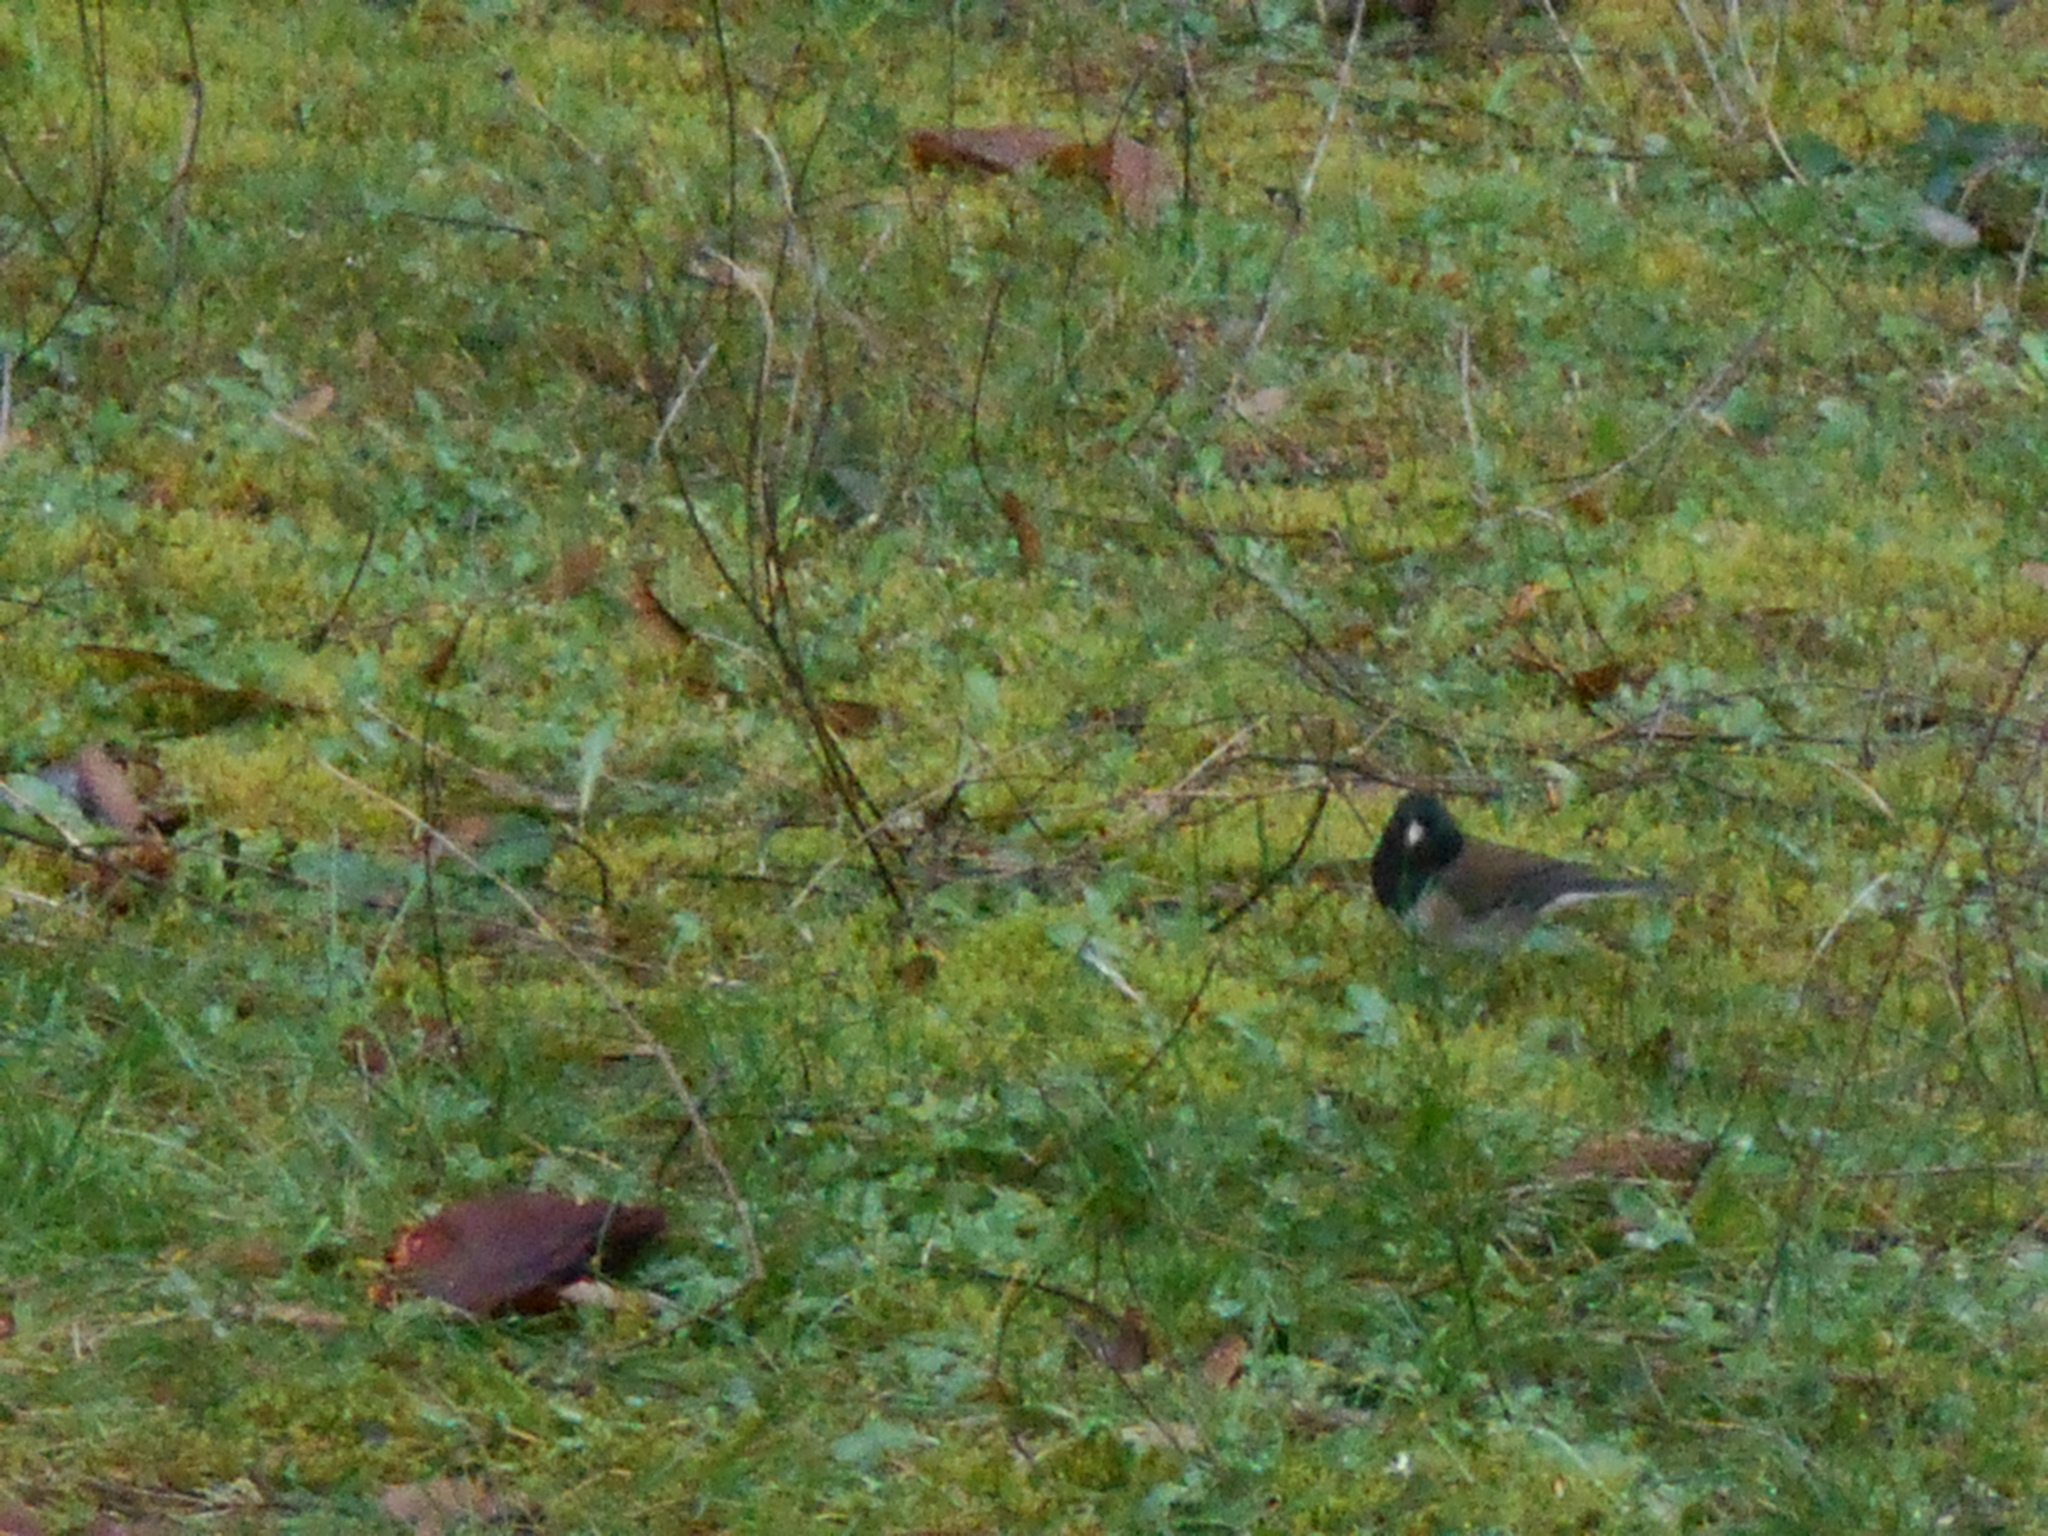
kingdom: Animalia
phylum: Chordata
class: Aves
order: Passeriformes
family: Passerellidae
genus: Junco
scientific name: Junco hyemalis
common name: Dark-eyed junco
